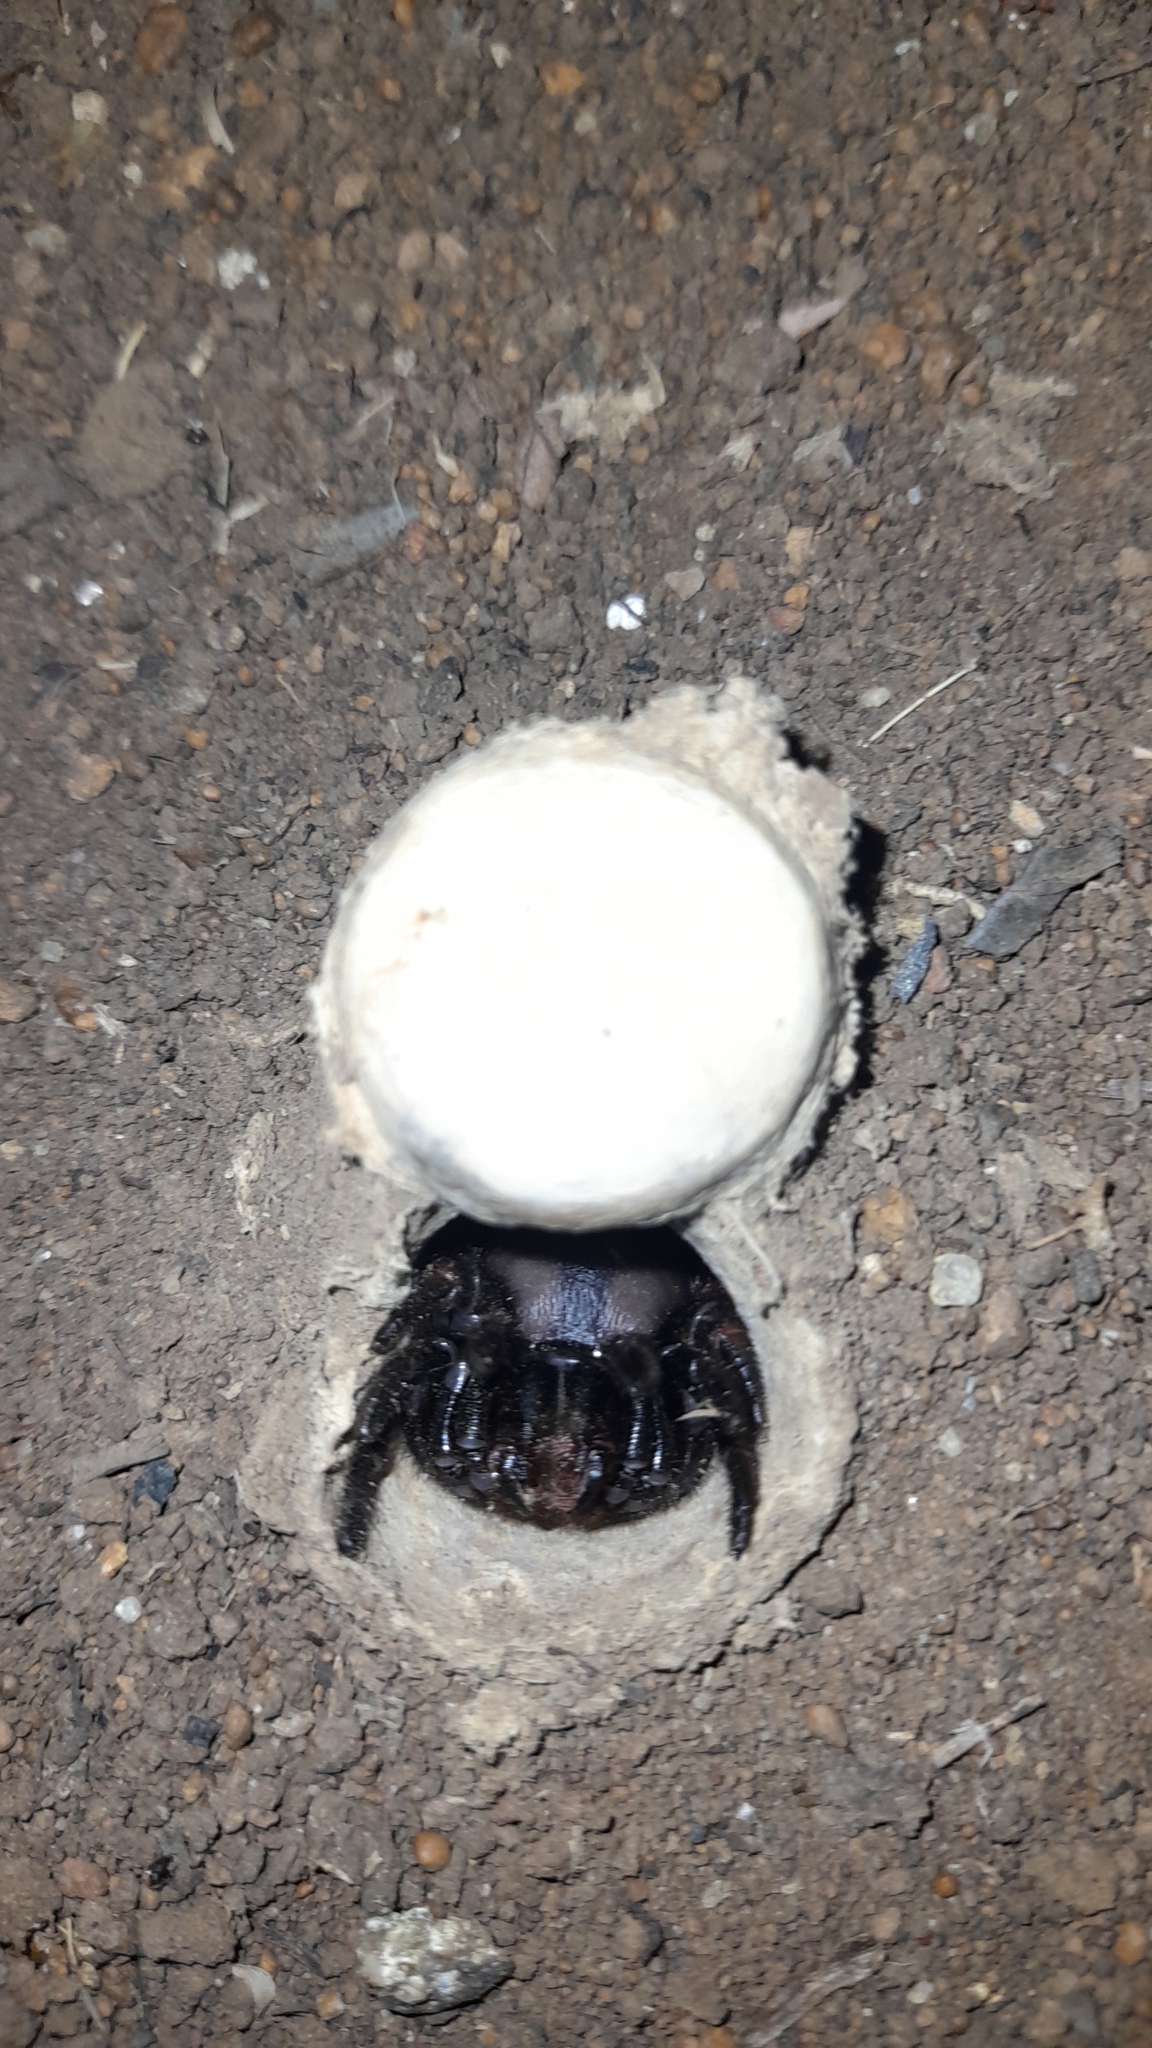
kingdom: Animalia
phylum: Arthropoda
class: Arachnida
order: Araneae
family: Actinopodidae
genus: Actinopus
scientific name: Actinopus robustus
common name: Trapdoor spiders
